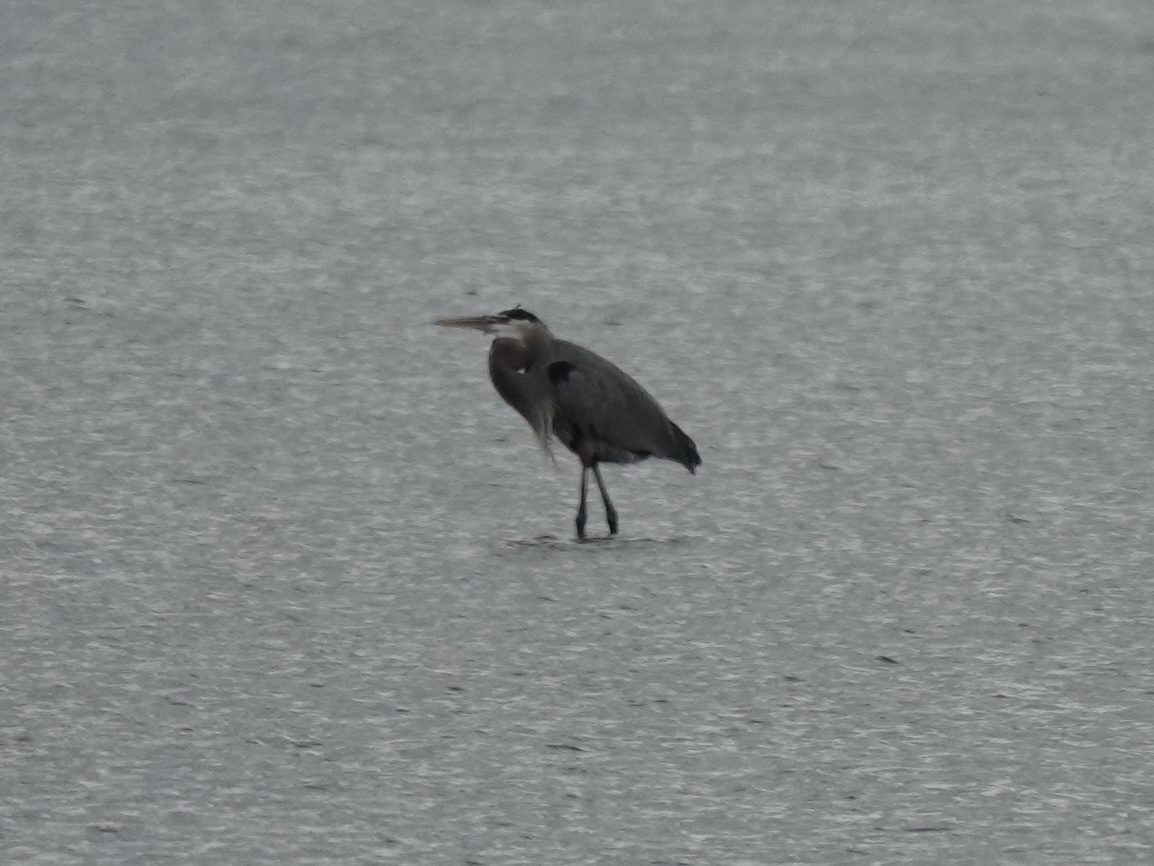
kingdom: Animalia
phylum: Chordata
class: Aves
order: Pelecaniformes
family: Ardeidae
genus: Ardea
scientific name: Ardea herodias
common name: Great blue heron
